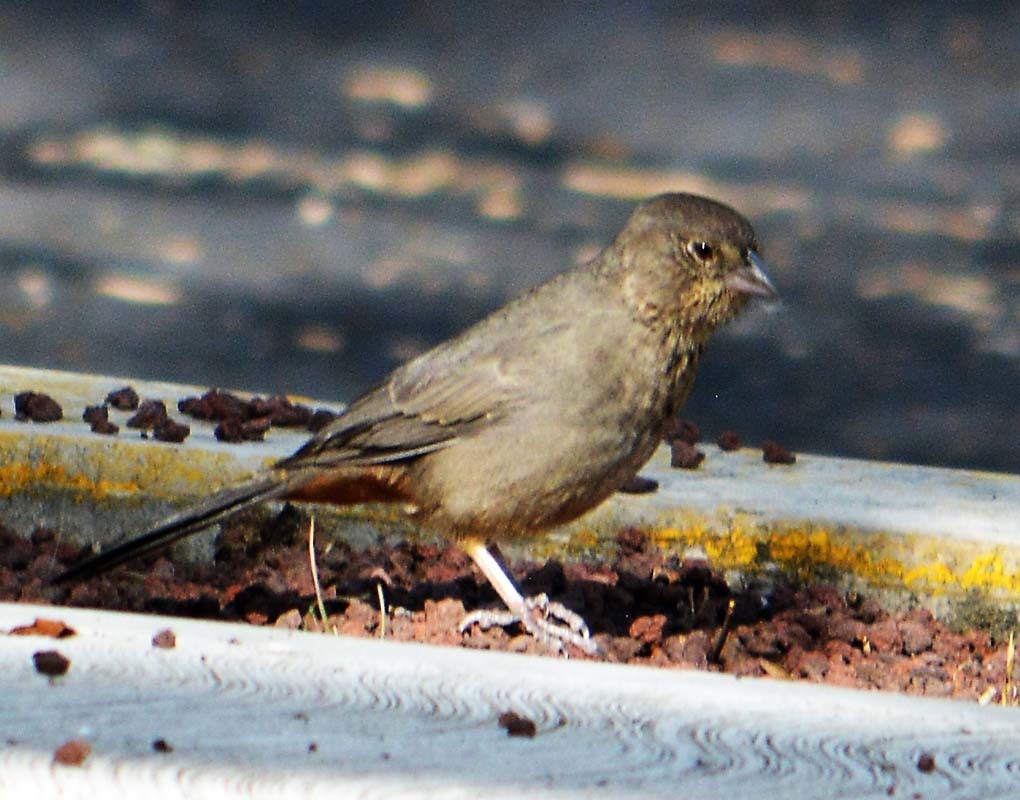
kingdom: Animalia
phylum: Chordata
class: Aves
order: Passeriformes
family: Passerellidae
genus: Melozone
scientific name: Melozone fusca
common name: Canyon towhee
